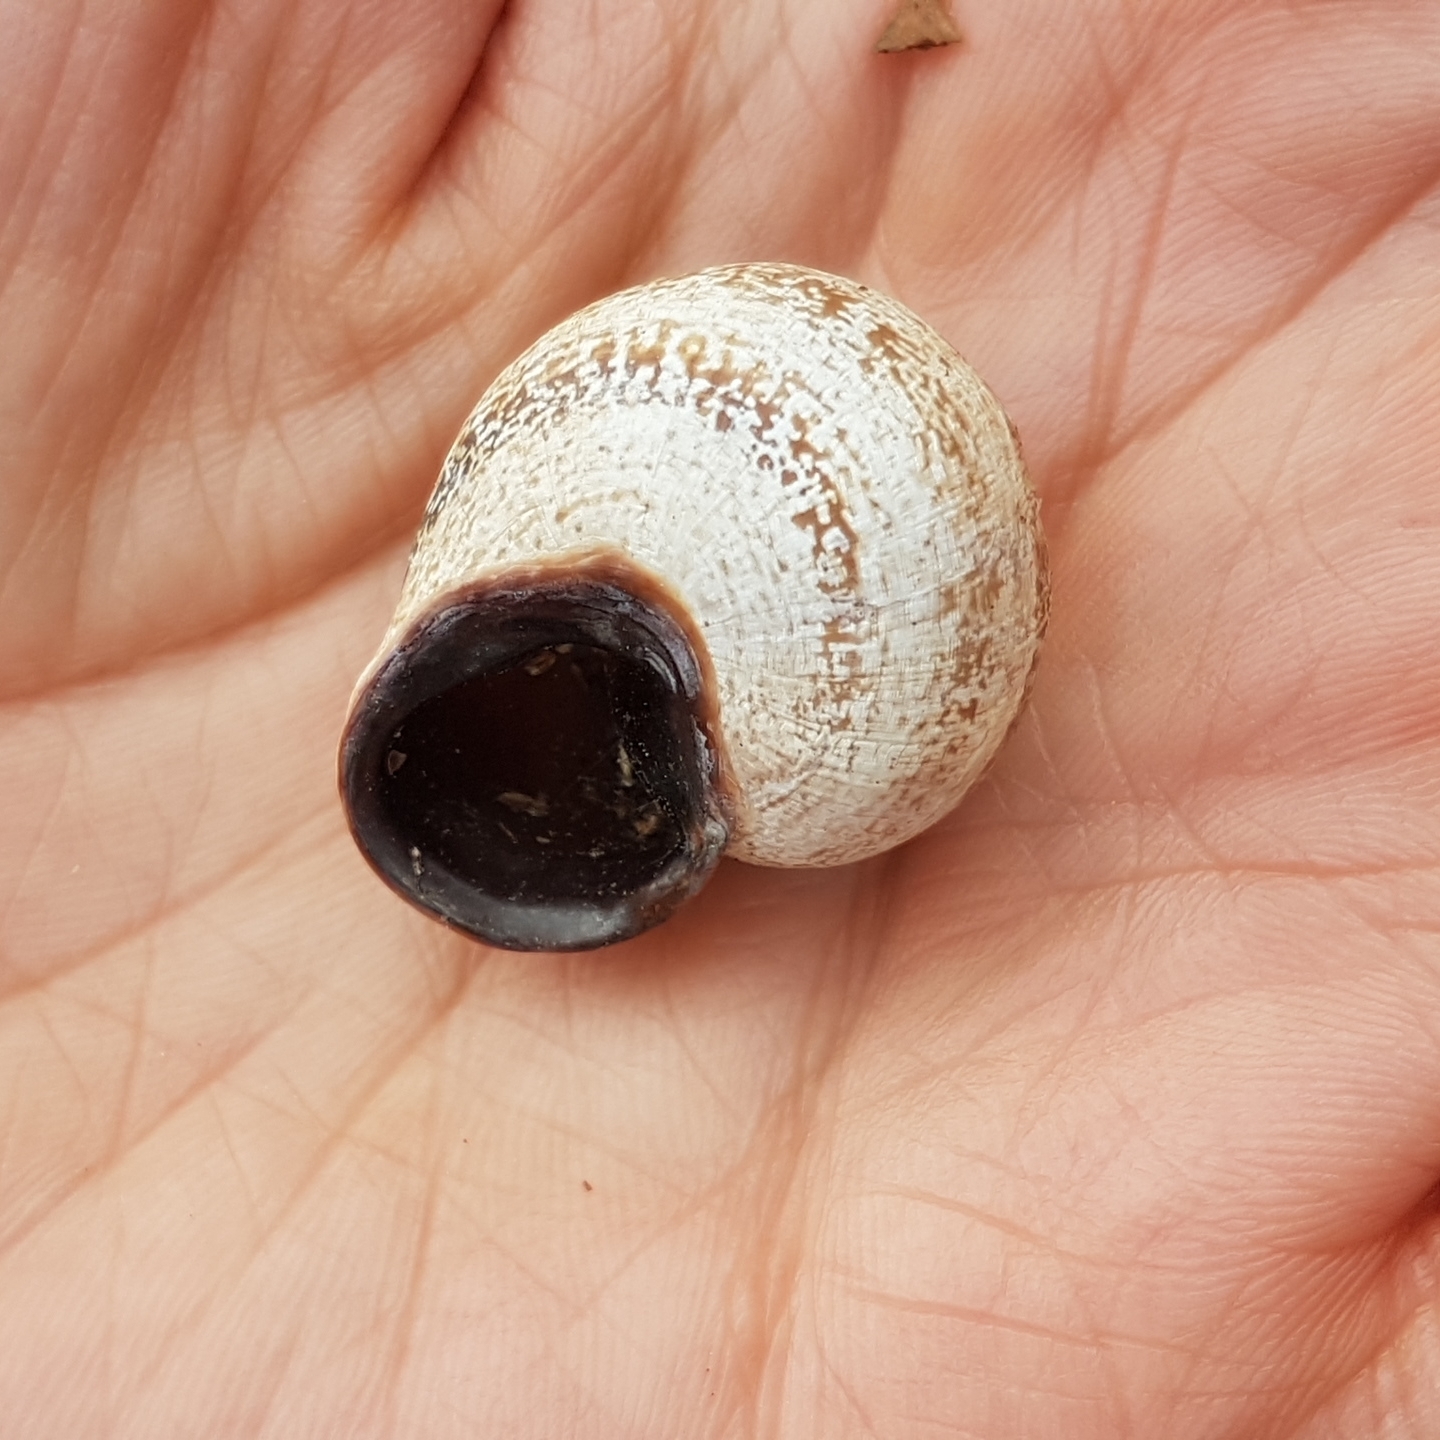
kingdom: Animalia
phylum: Mollusca
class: Gastropoda
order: Stylommatophora
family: Helicidae
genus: Otala
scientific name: Otala lactea
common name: Milk snail
